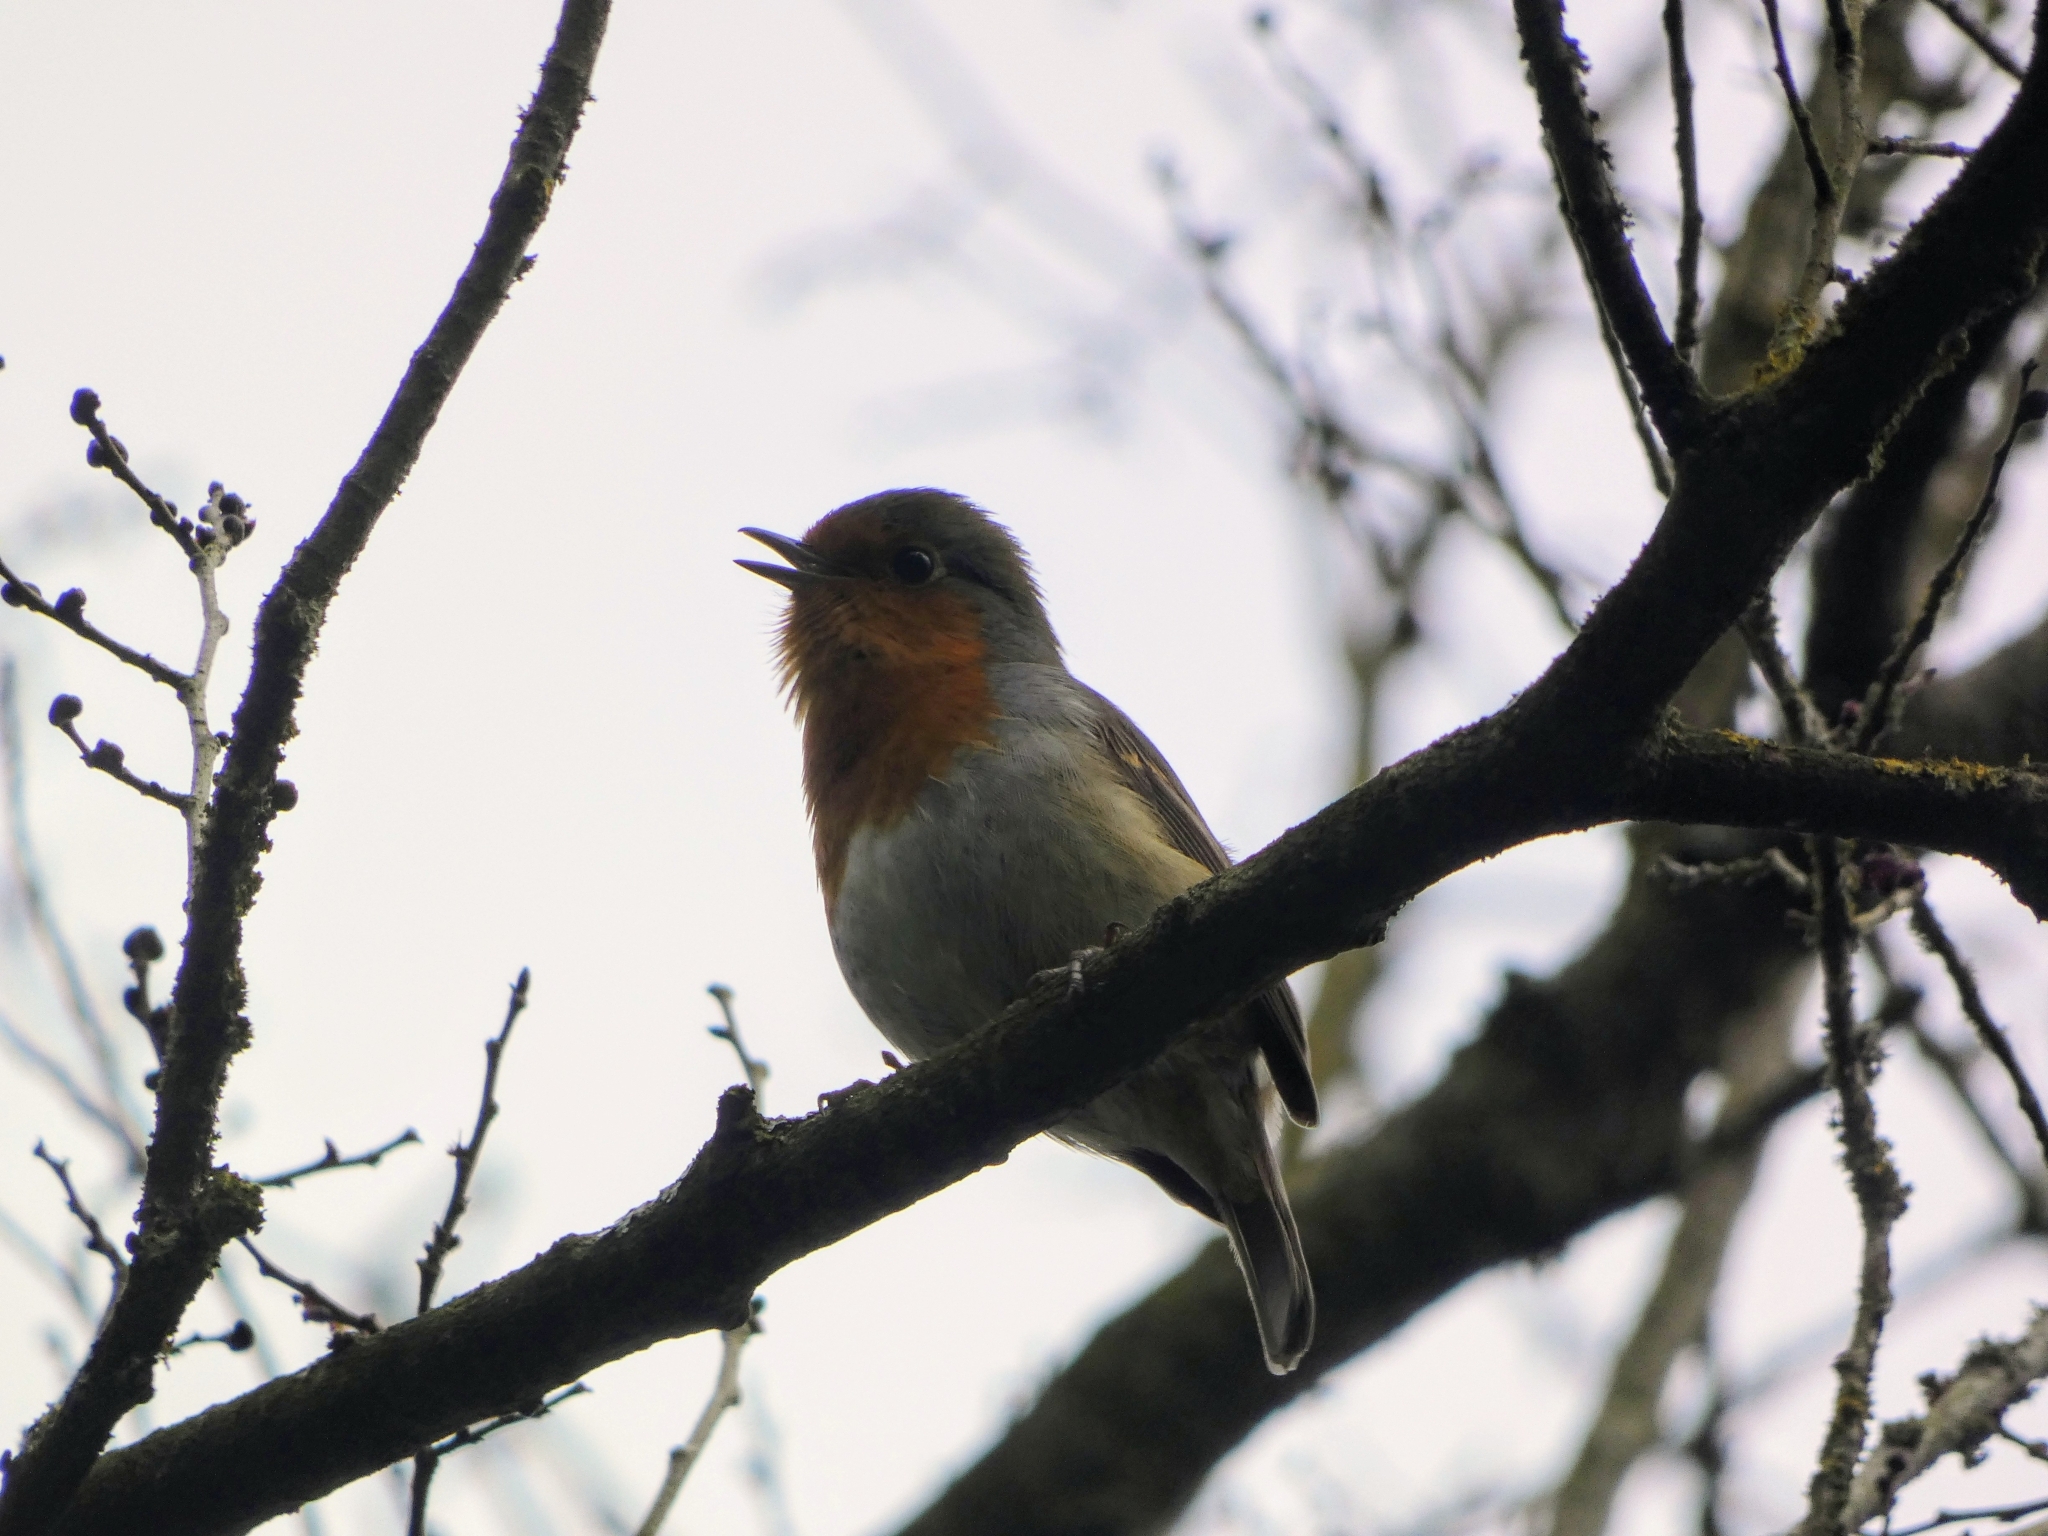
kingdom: Animalia
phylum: Chordata
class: Aves
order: Passeriformes
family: Muscicapidae
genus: Erithacus
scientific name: Erithacus rubecula
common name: European robin
